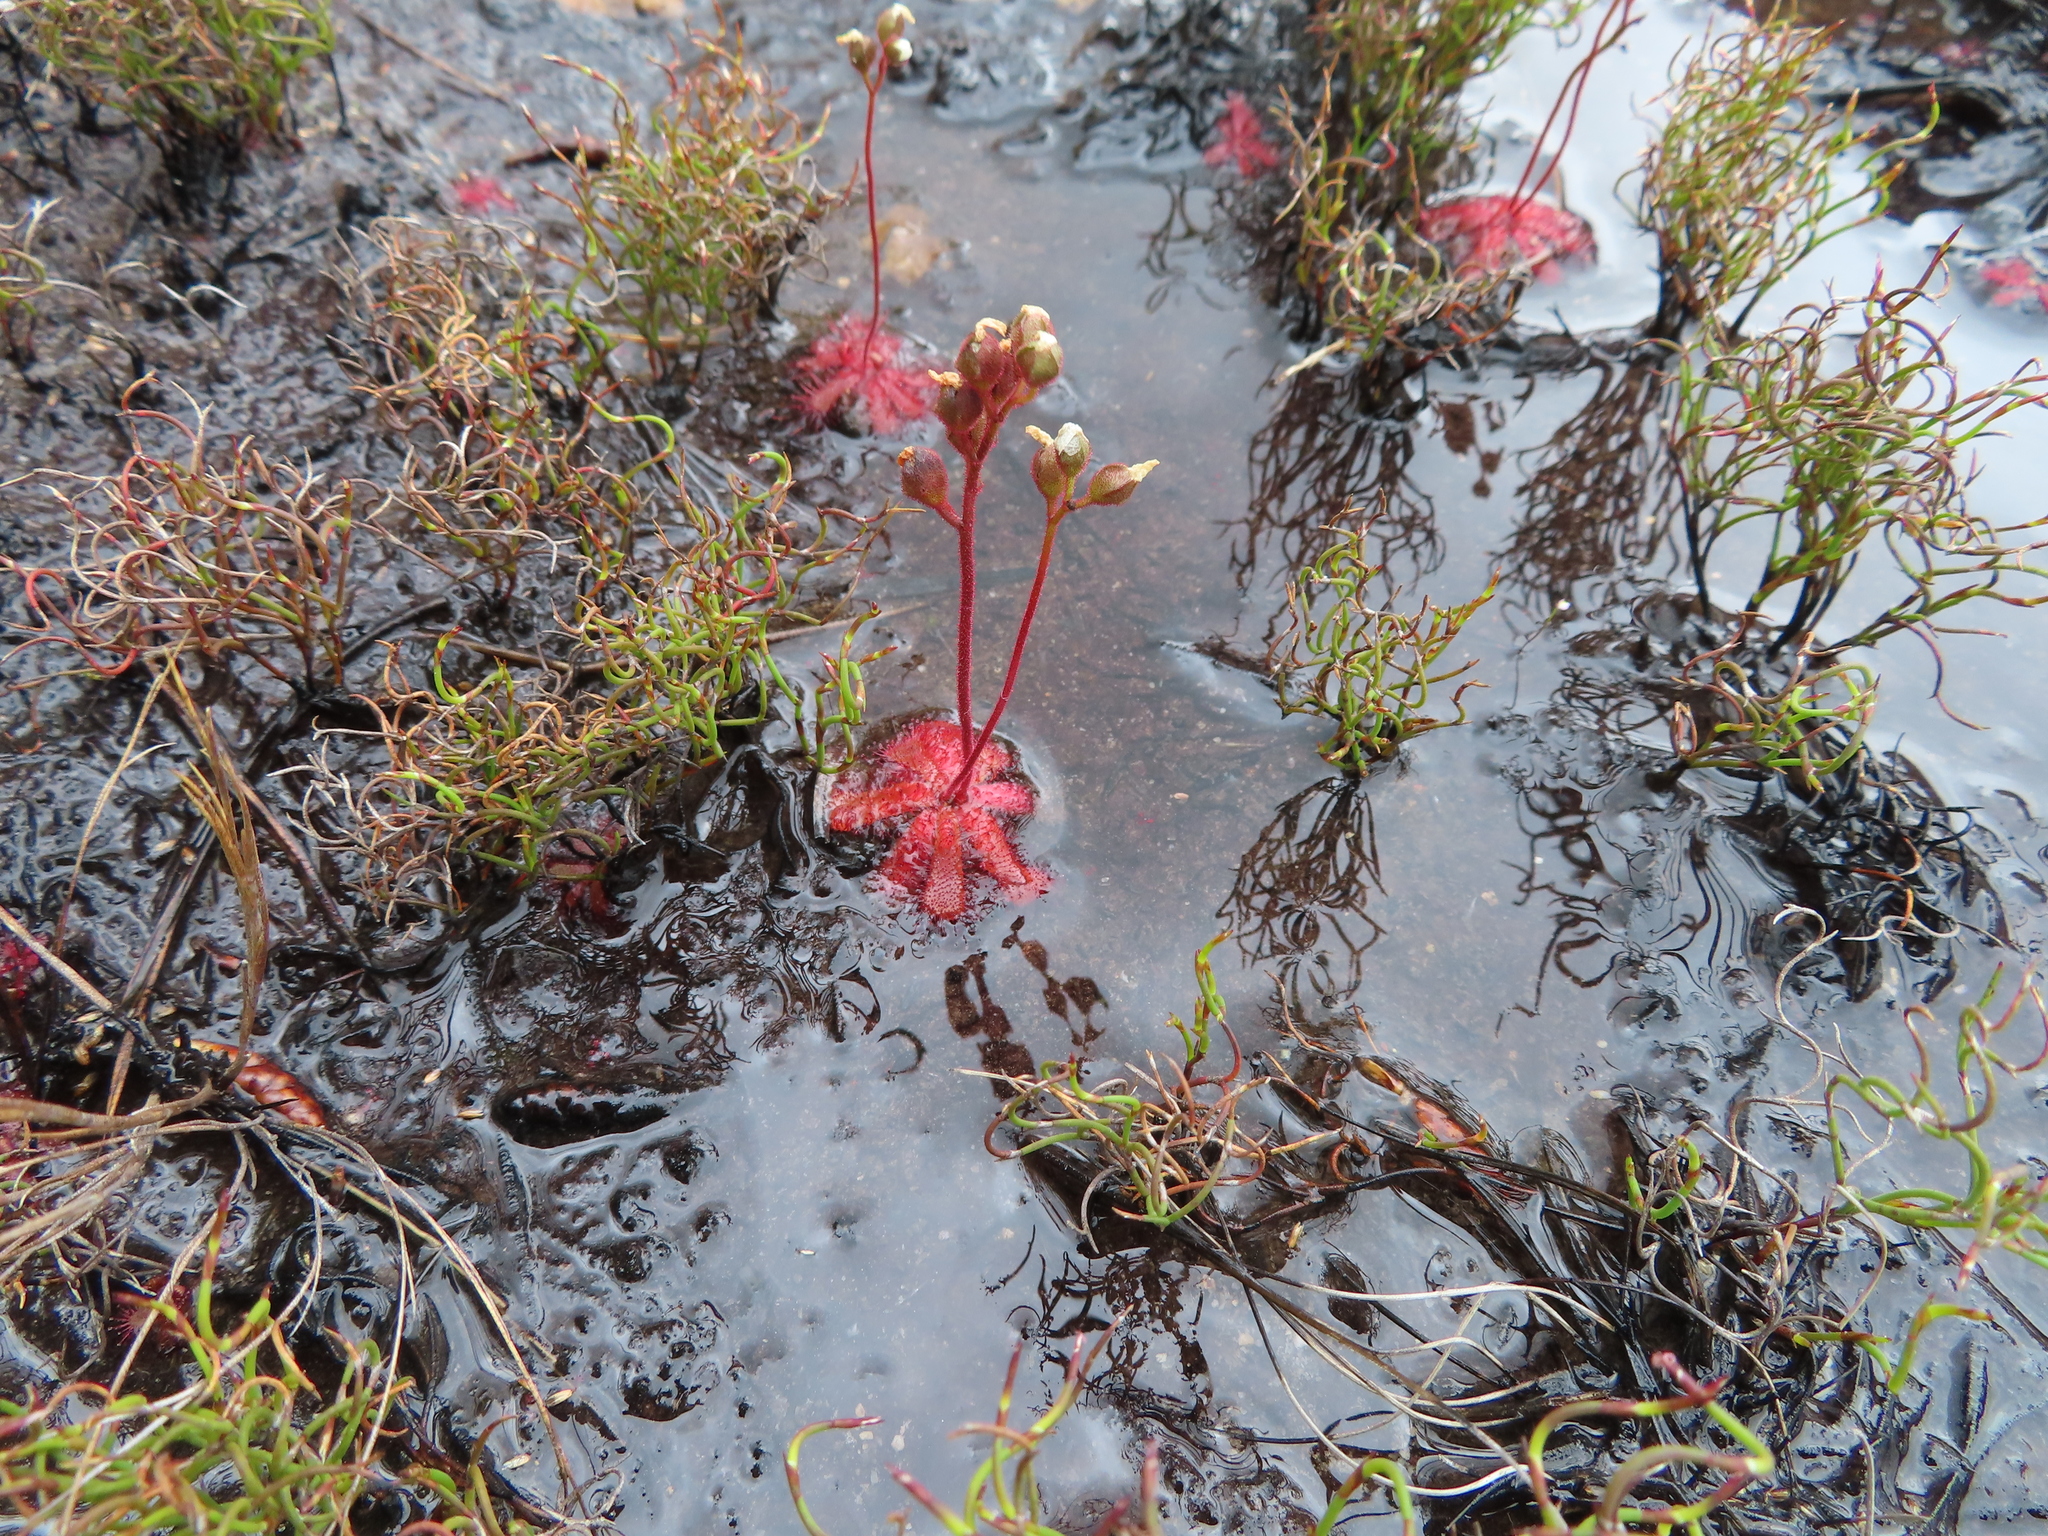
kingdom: Plantae
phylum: Tracheophyta
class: Magnoliopsida
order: Caryophyllales
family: Droseraceae
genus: Drosera
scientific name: Drosera trinervia
